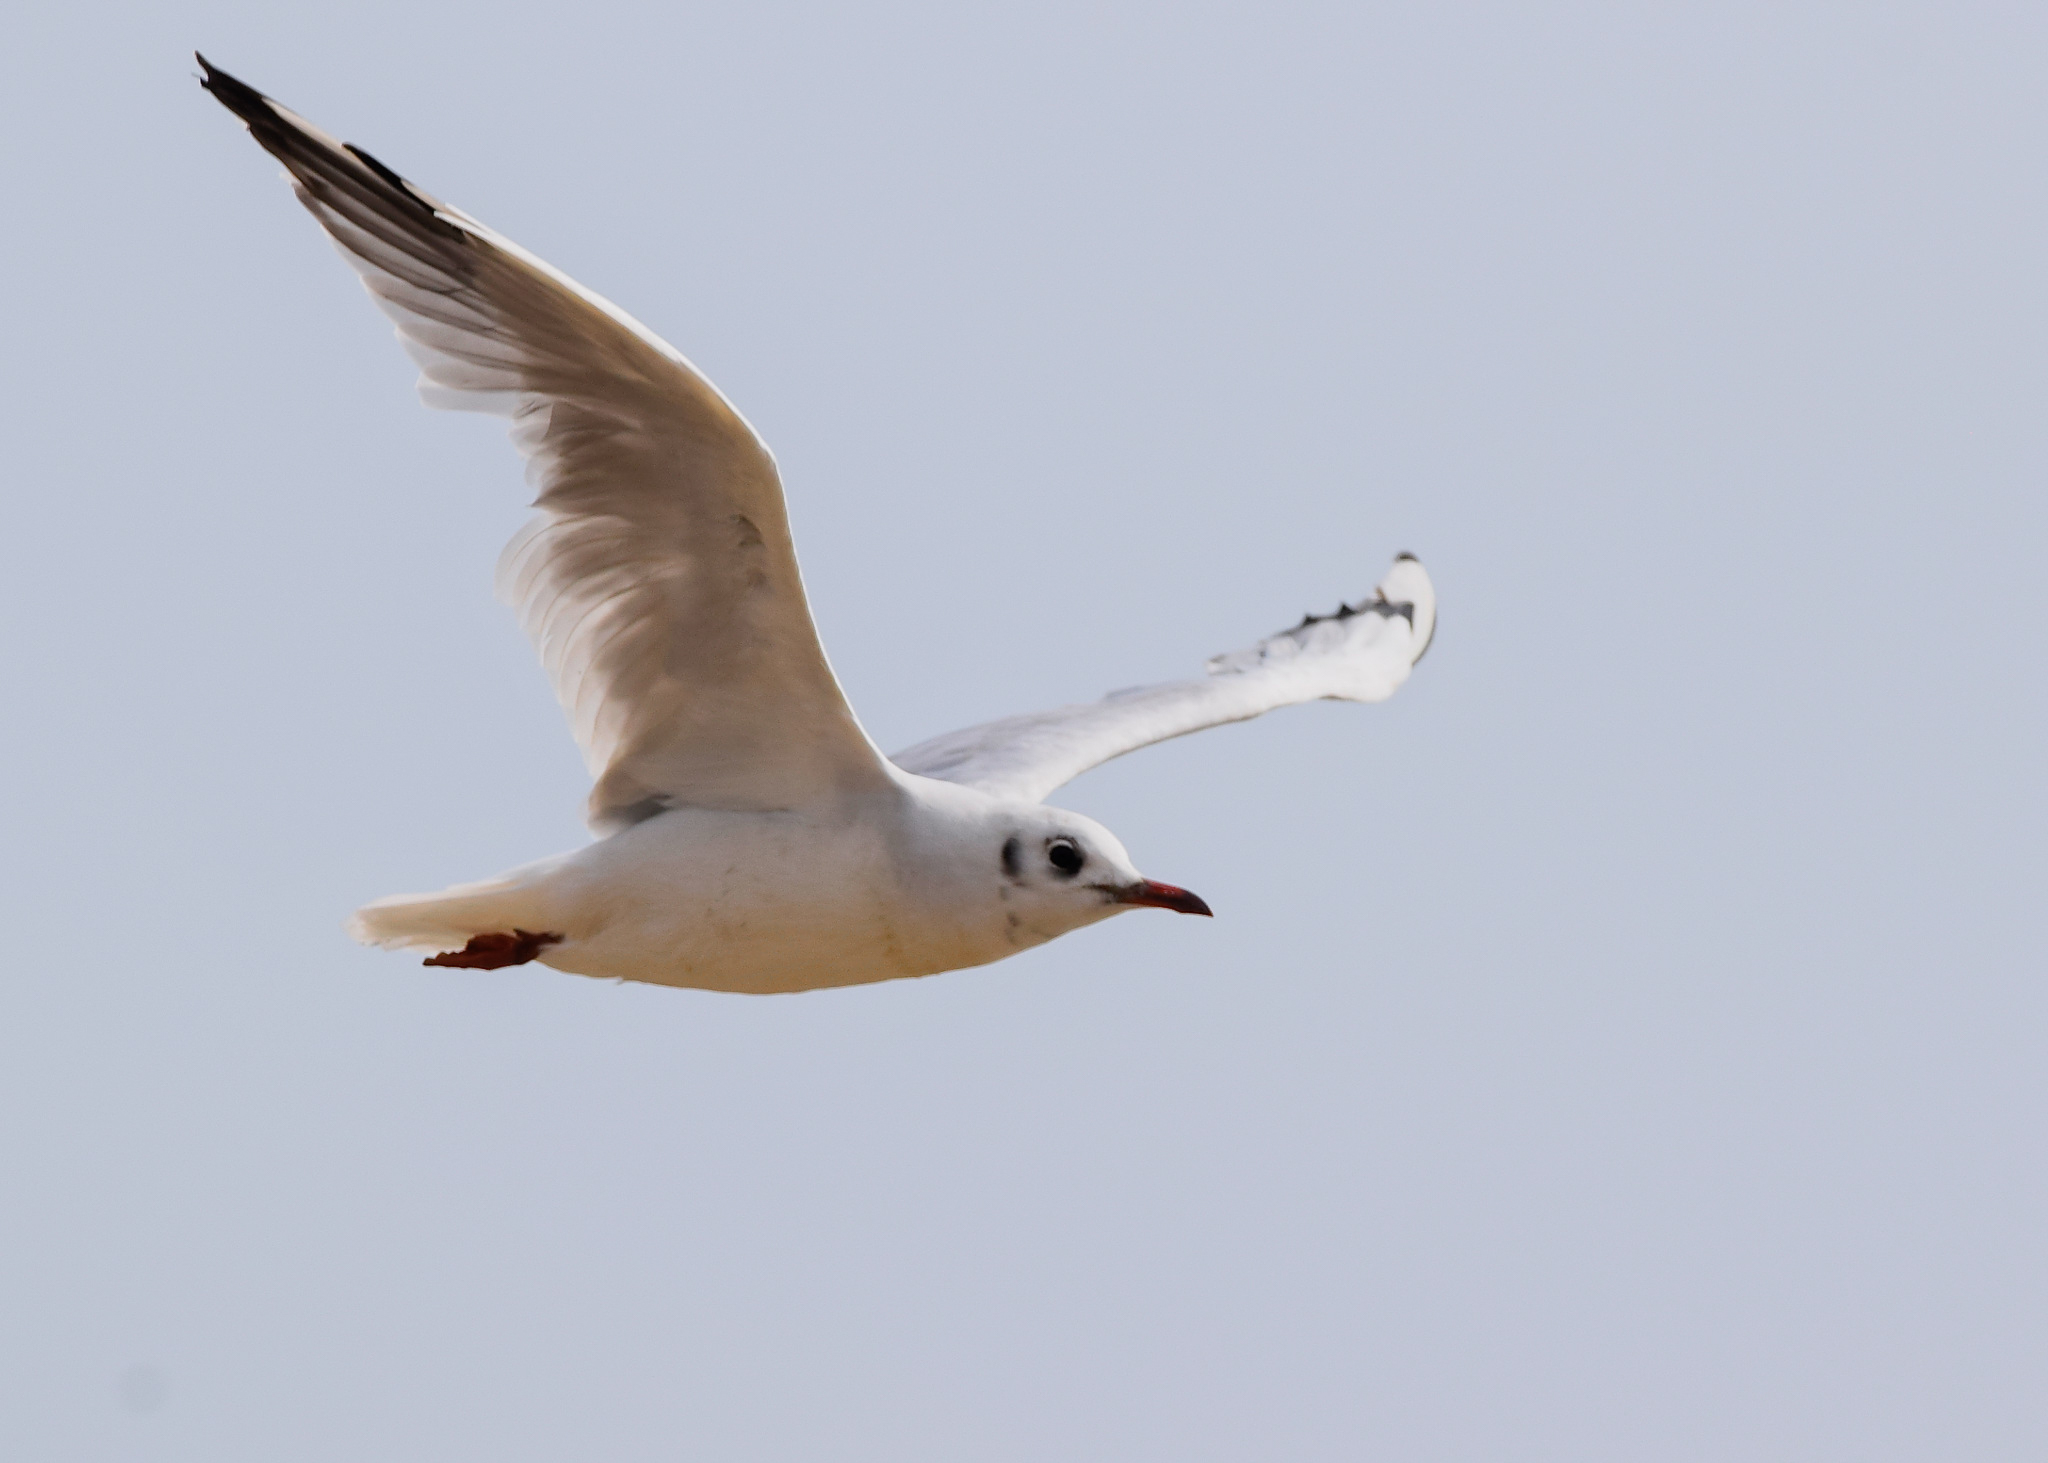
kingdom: Animalia
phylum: Chordata
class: Aves
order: Charadriiformes
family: Laridae
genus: Chroicocephalus
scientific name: Chroicocephalus ridibundus
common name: Black-headed gull
